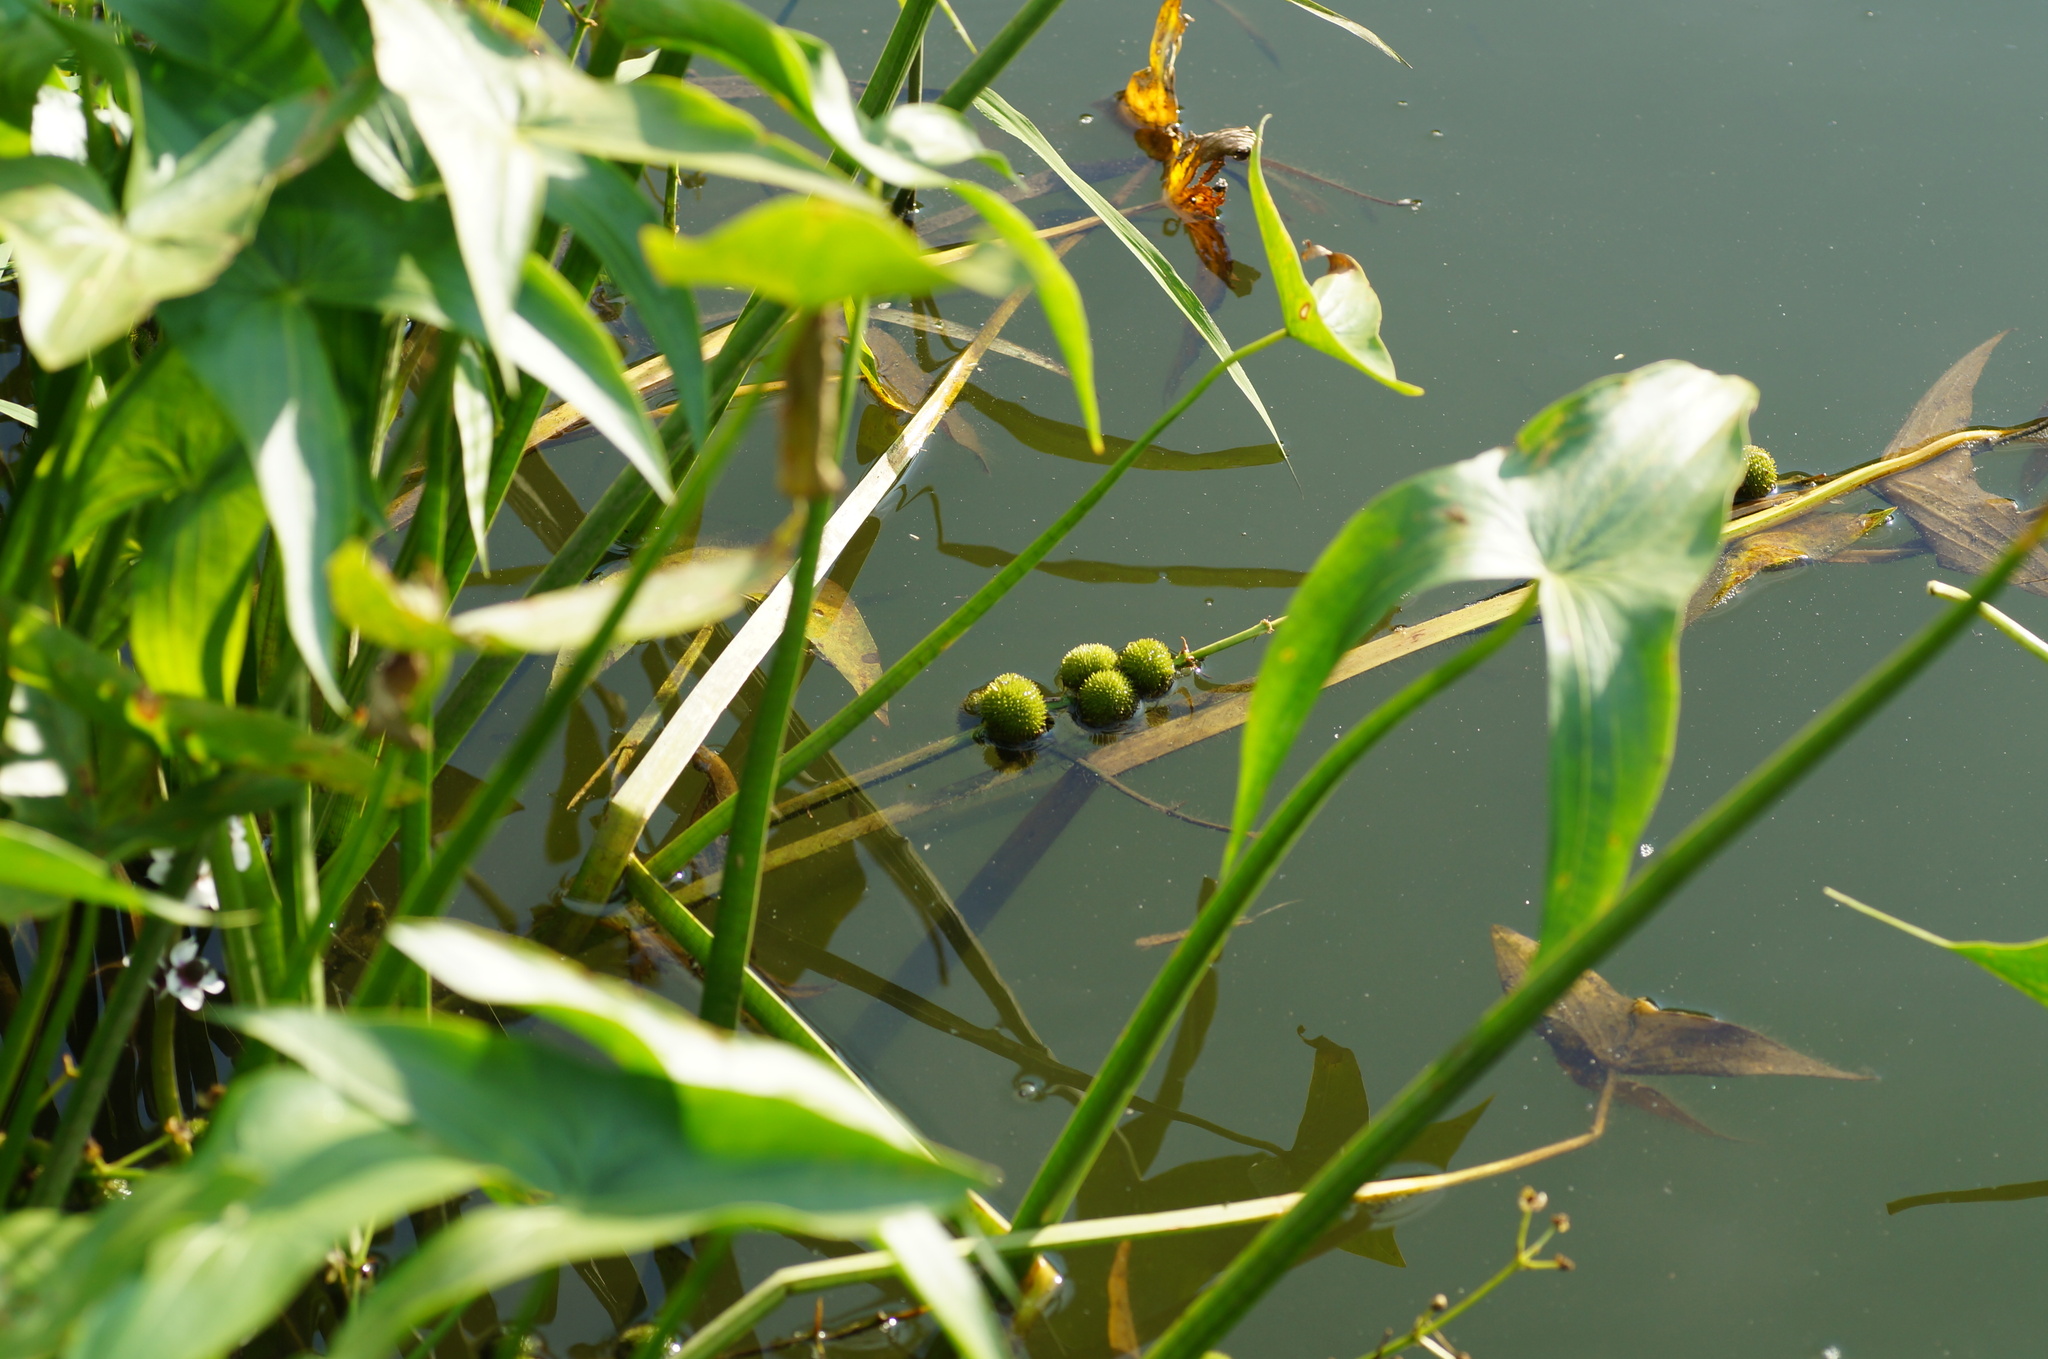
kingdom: Plantae
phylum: Tracheophyta
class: Liliopsida
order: Alismatales
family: Alismataceae
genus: Sagittaria
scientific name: Sagittaria sagittifolia
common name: Arrowhead
